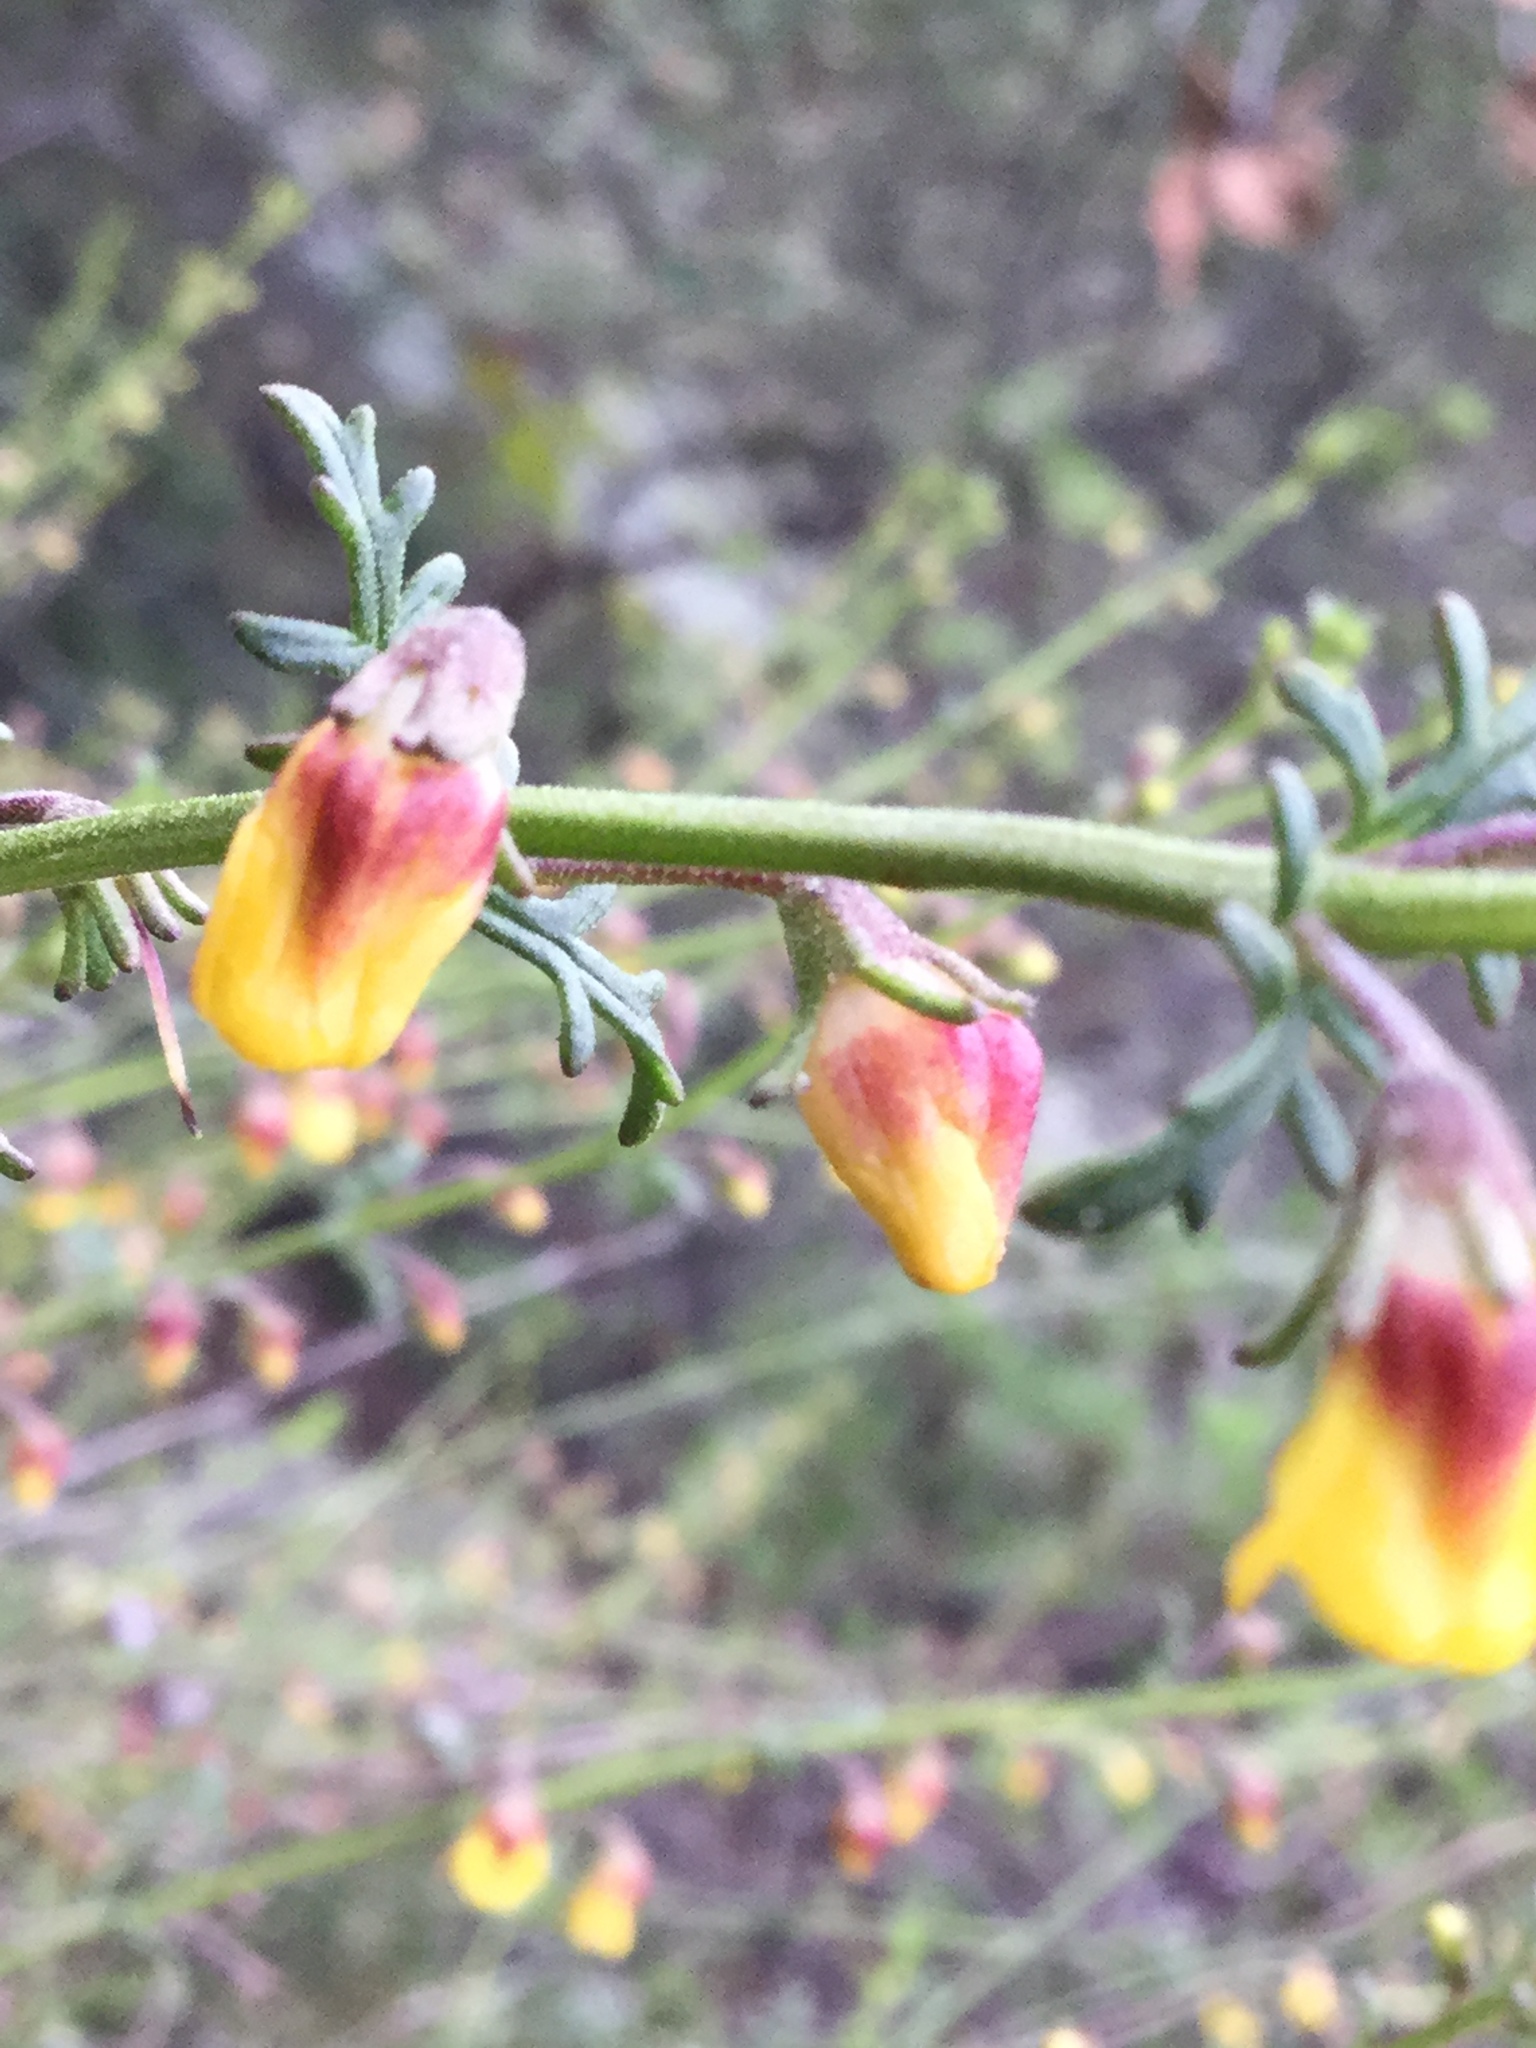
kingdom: Plantae
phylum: Tracheophyta
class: Magnoliopsida
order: Lamiales
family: Orobanchaceae
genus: Seymeria
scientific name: Seymeria decurva
